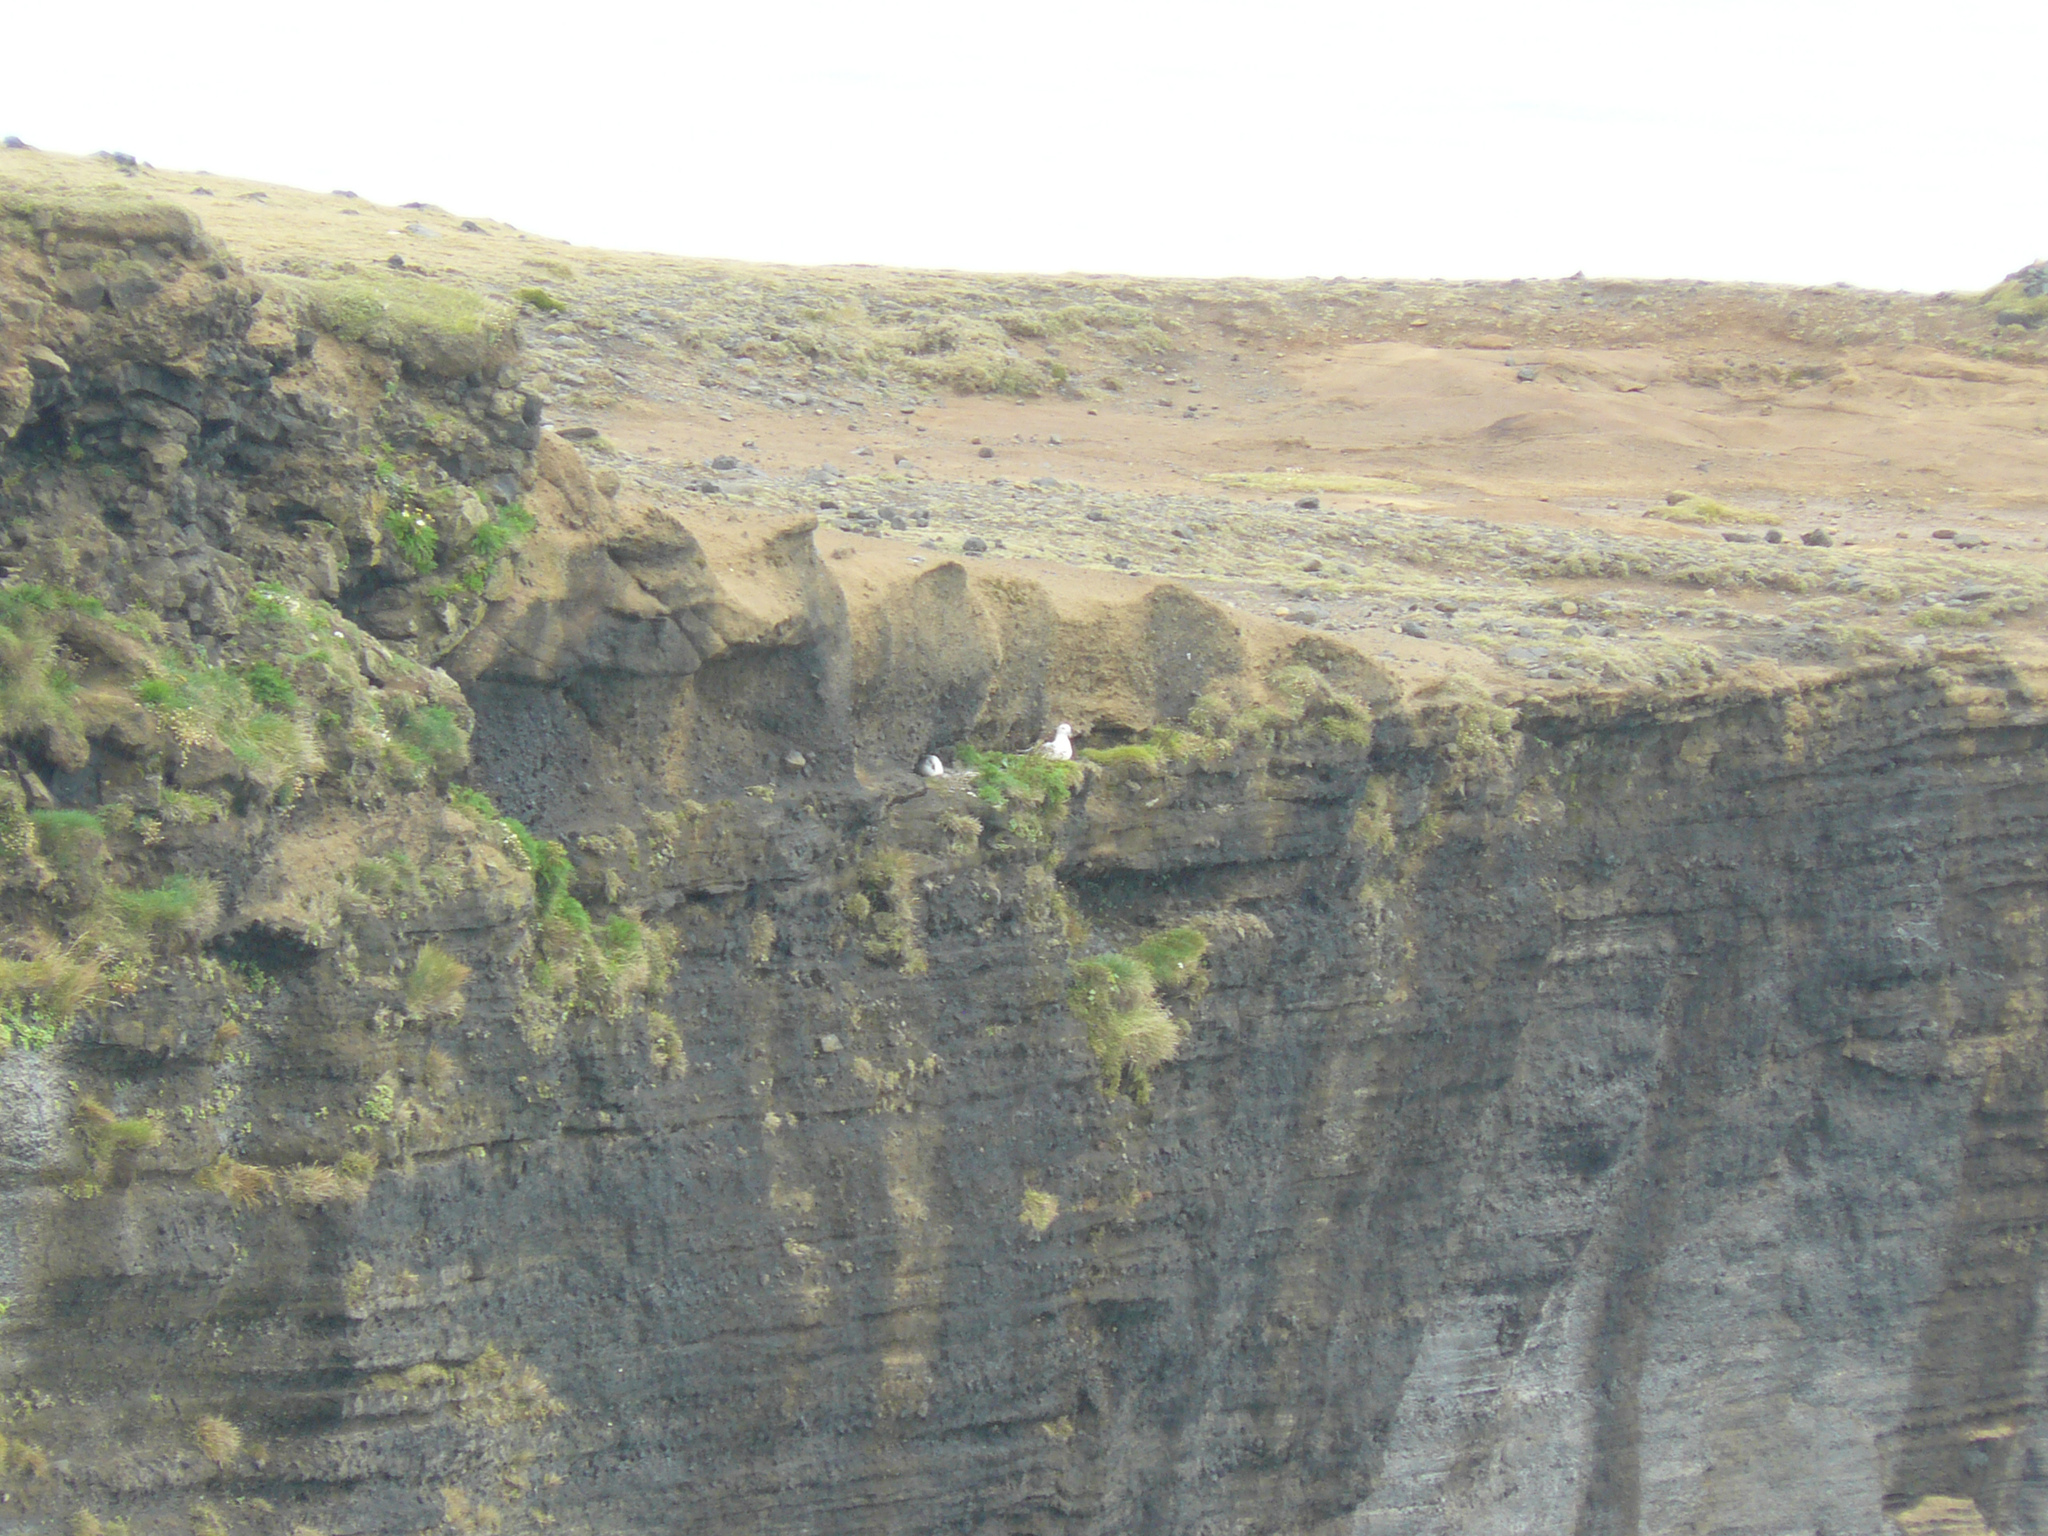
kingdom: Animalia
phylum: Chordata
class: Aves
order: Procellariiformes
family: Procellariidae
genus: Fulmarus
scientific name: Fulmarus glacialis
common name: Northern fulmar
